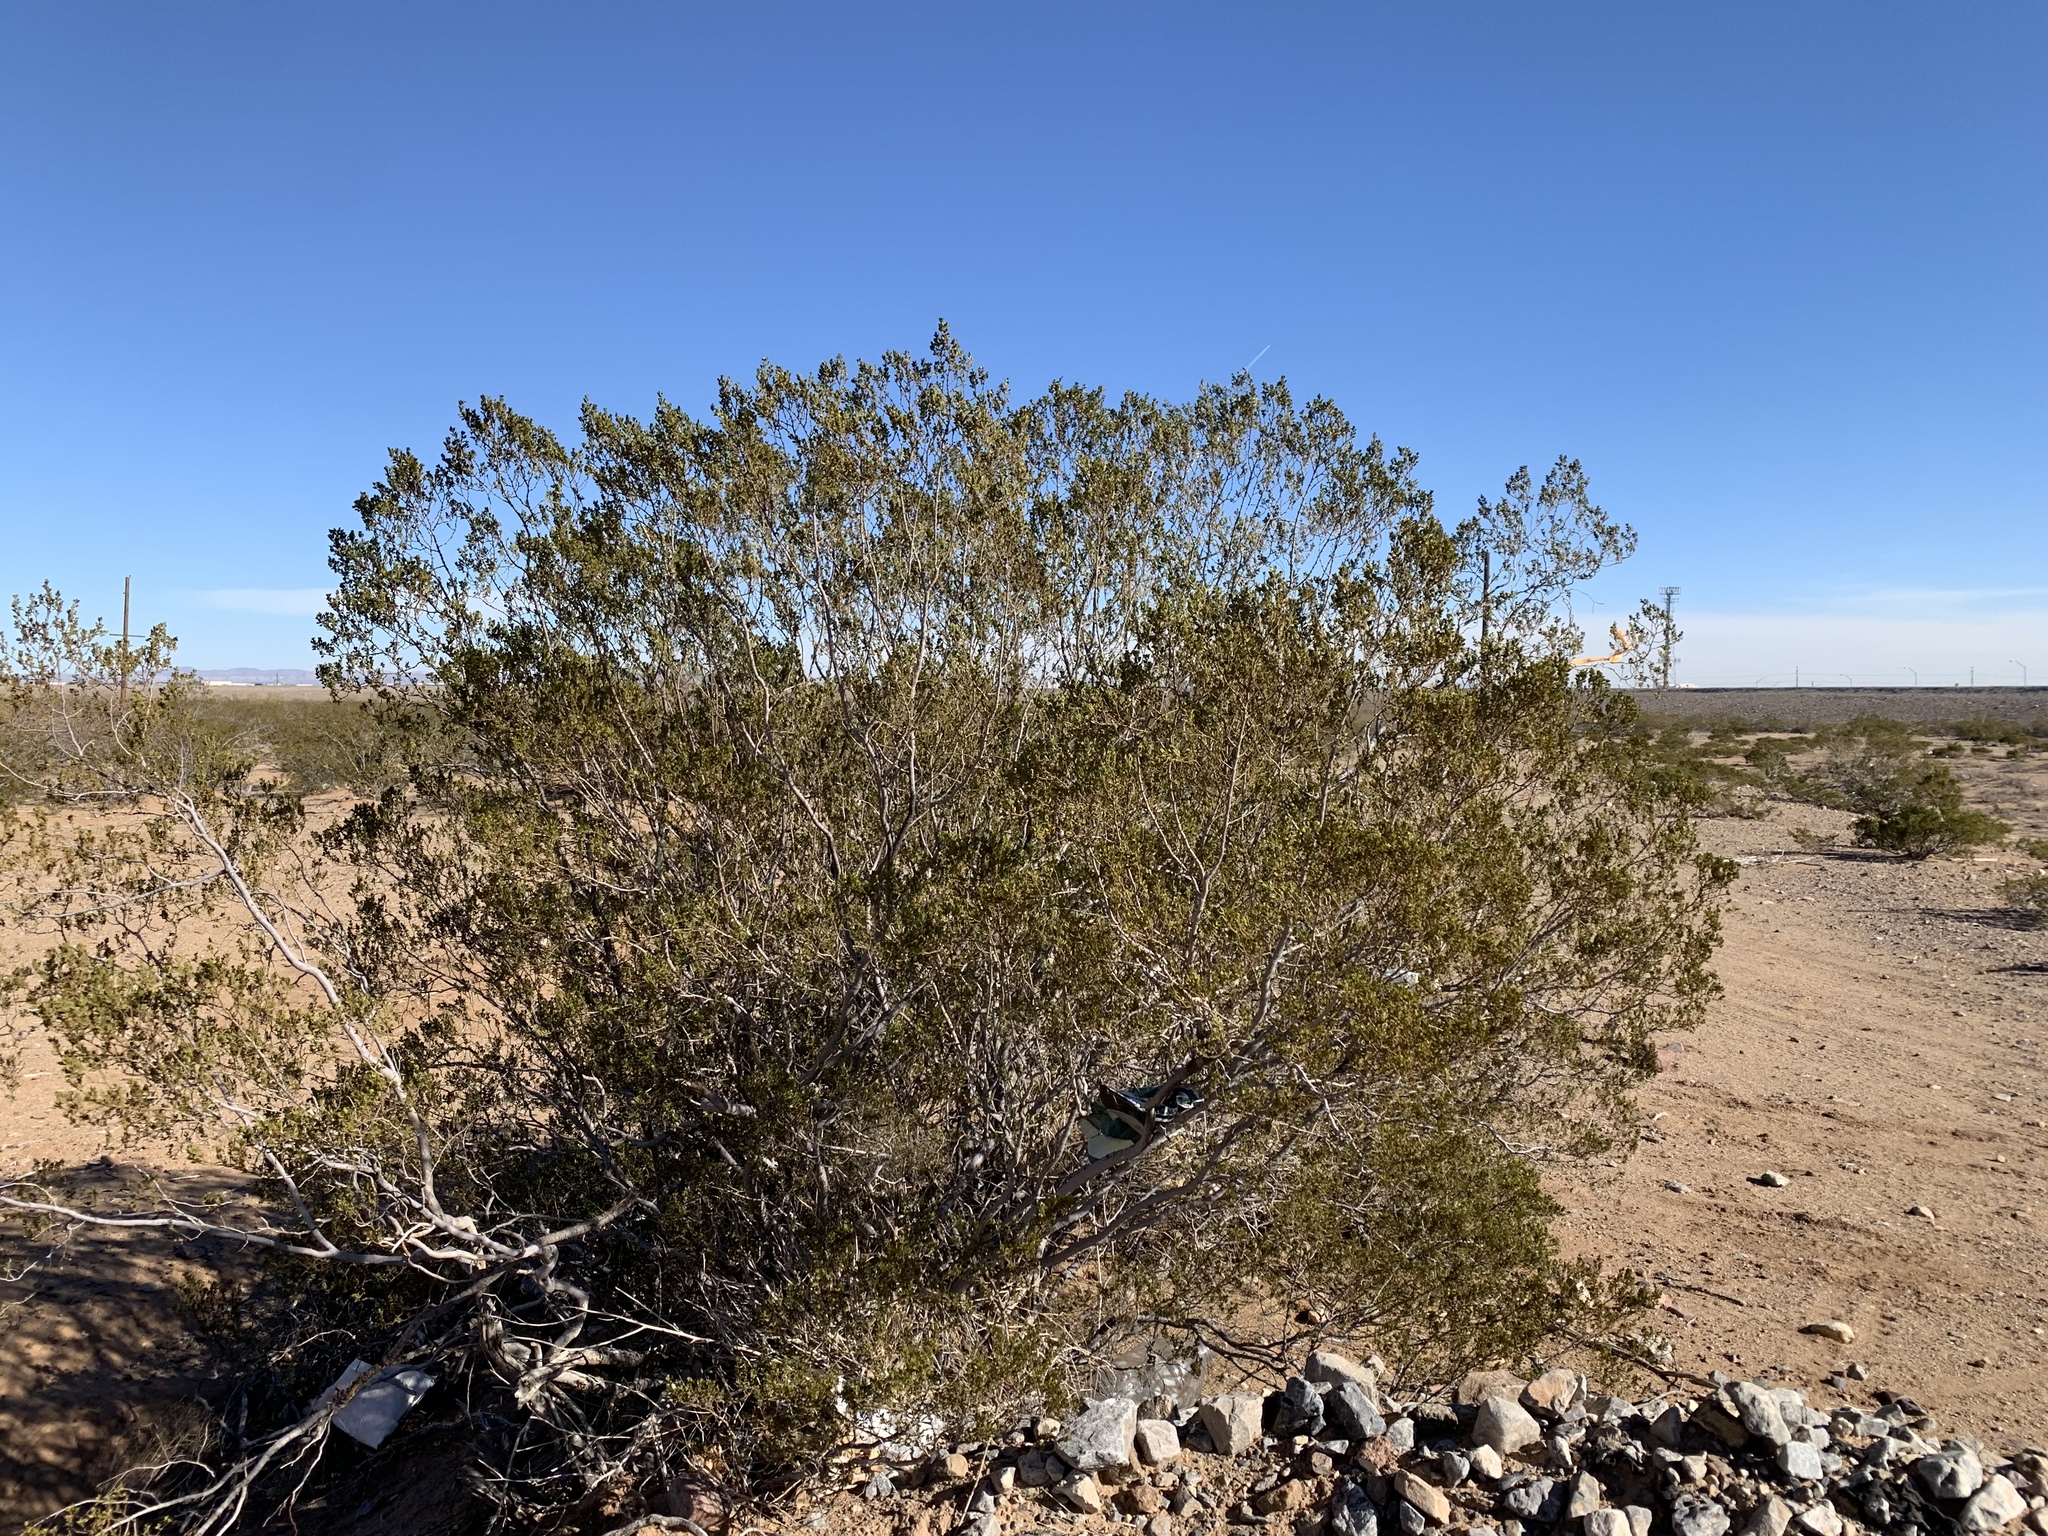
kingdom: Plantae
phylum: Tracheophyta
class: Magnoliopsida
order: Zygophyllales
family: Zygophyllaceae
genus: Larrea
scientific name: Larrea tridentata
